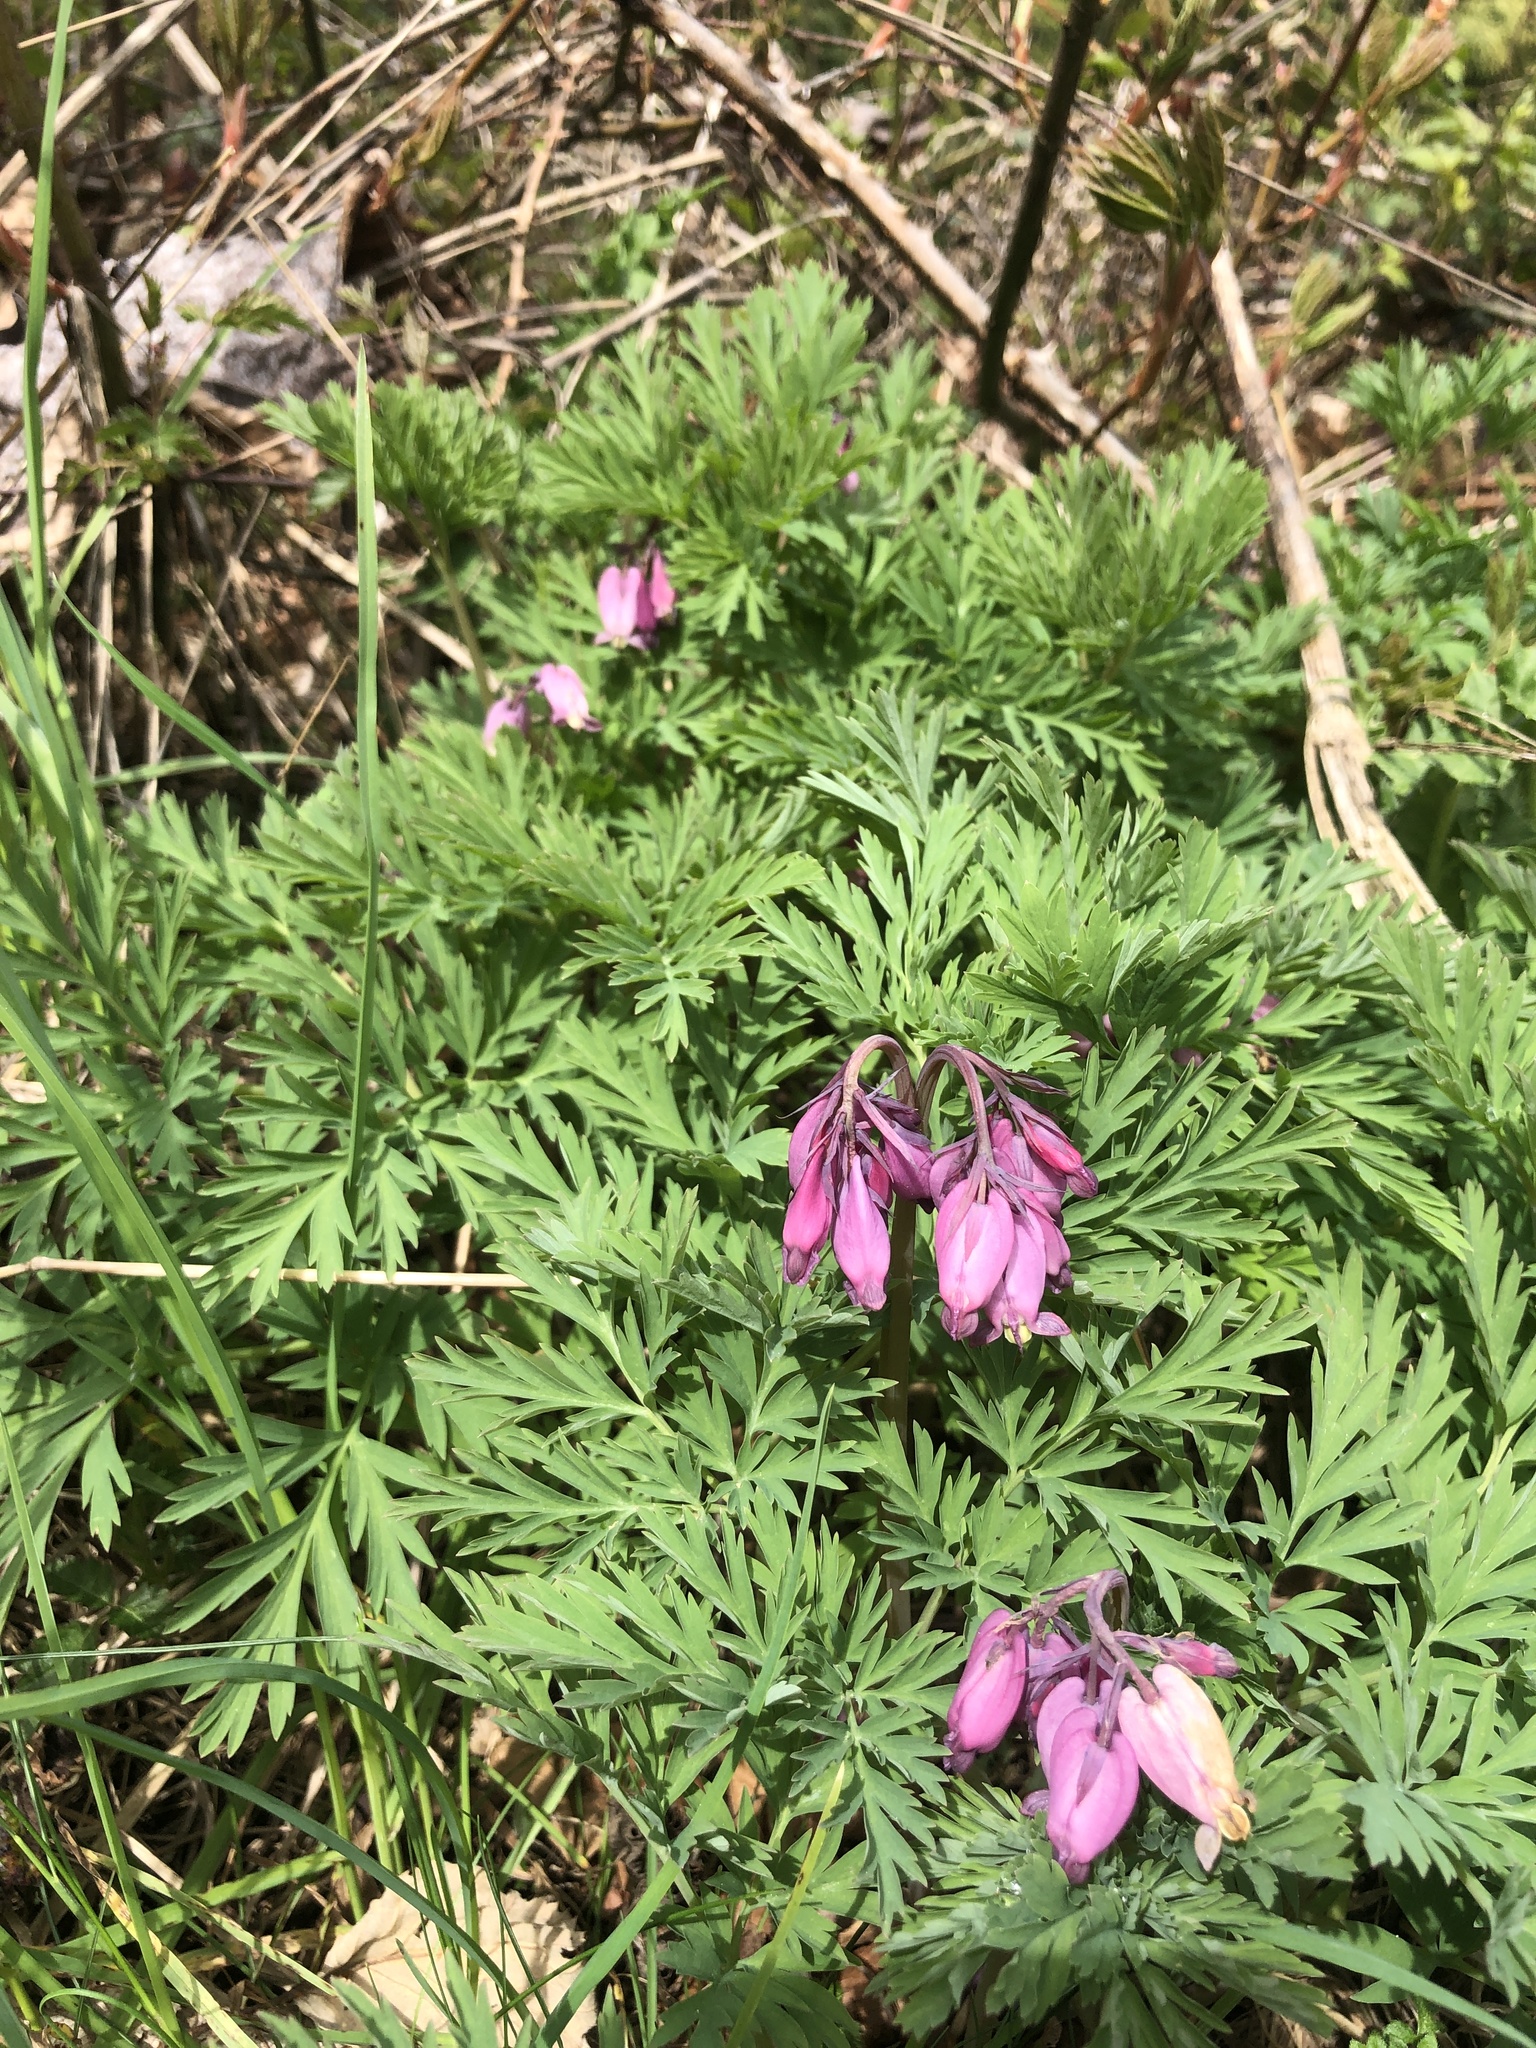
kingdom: Plantae
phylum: Tracheophyta
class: Magnoliopsida
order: Ranunculales
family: Papaveraceae
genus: Dicentra
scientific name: Dicentra formosa
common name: Bleeding-heart
